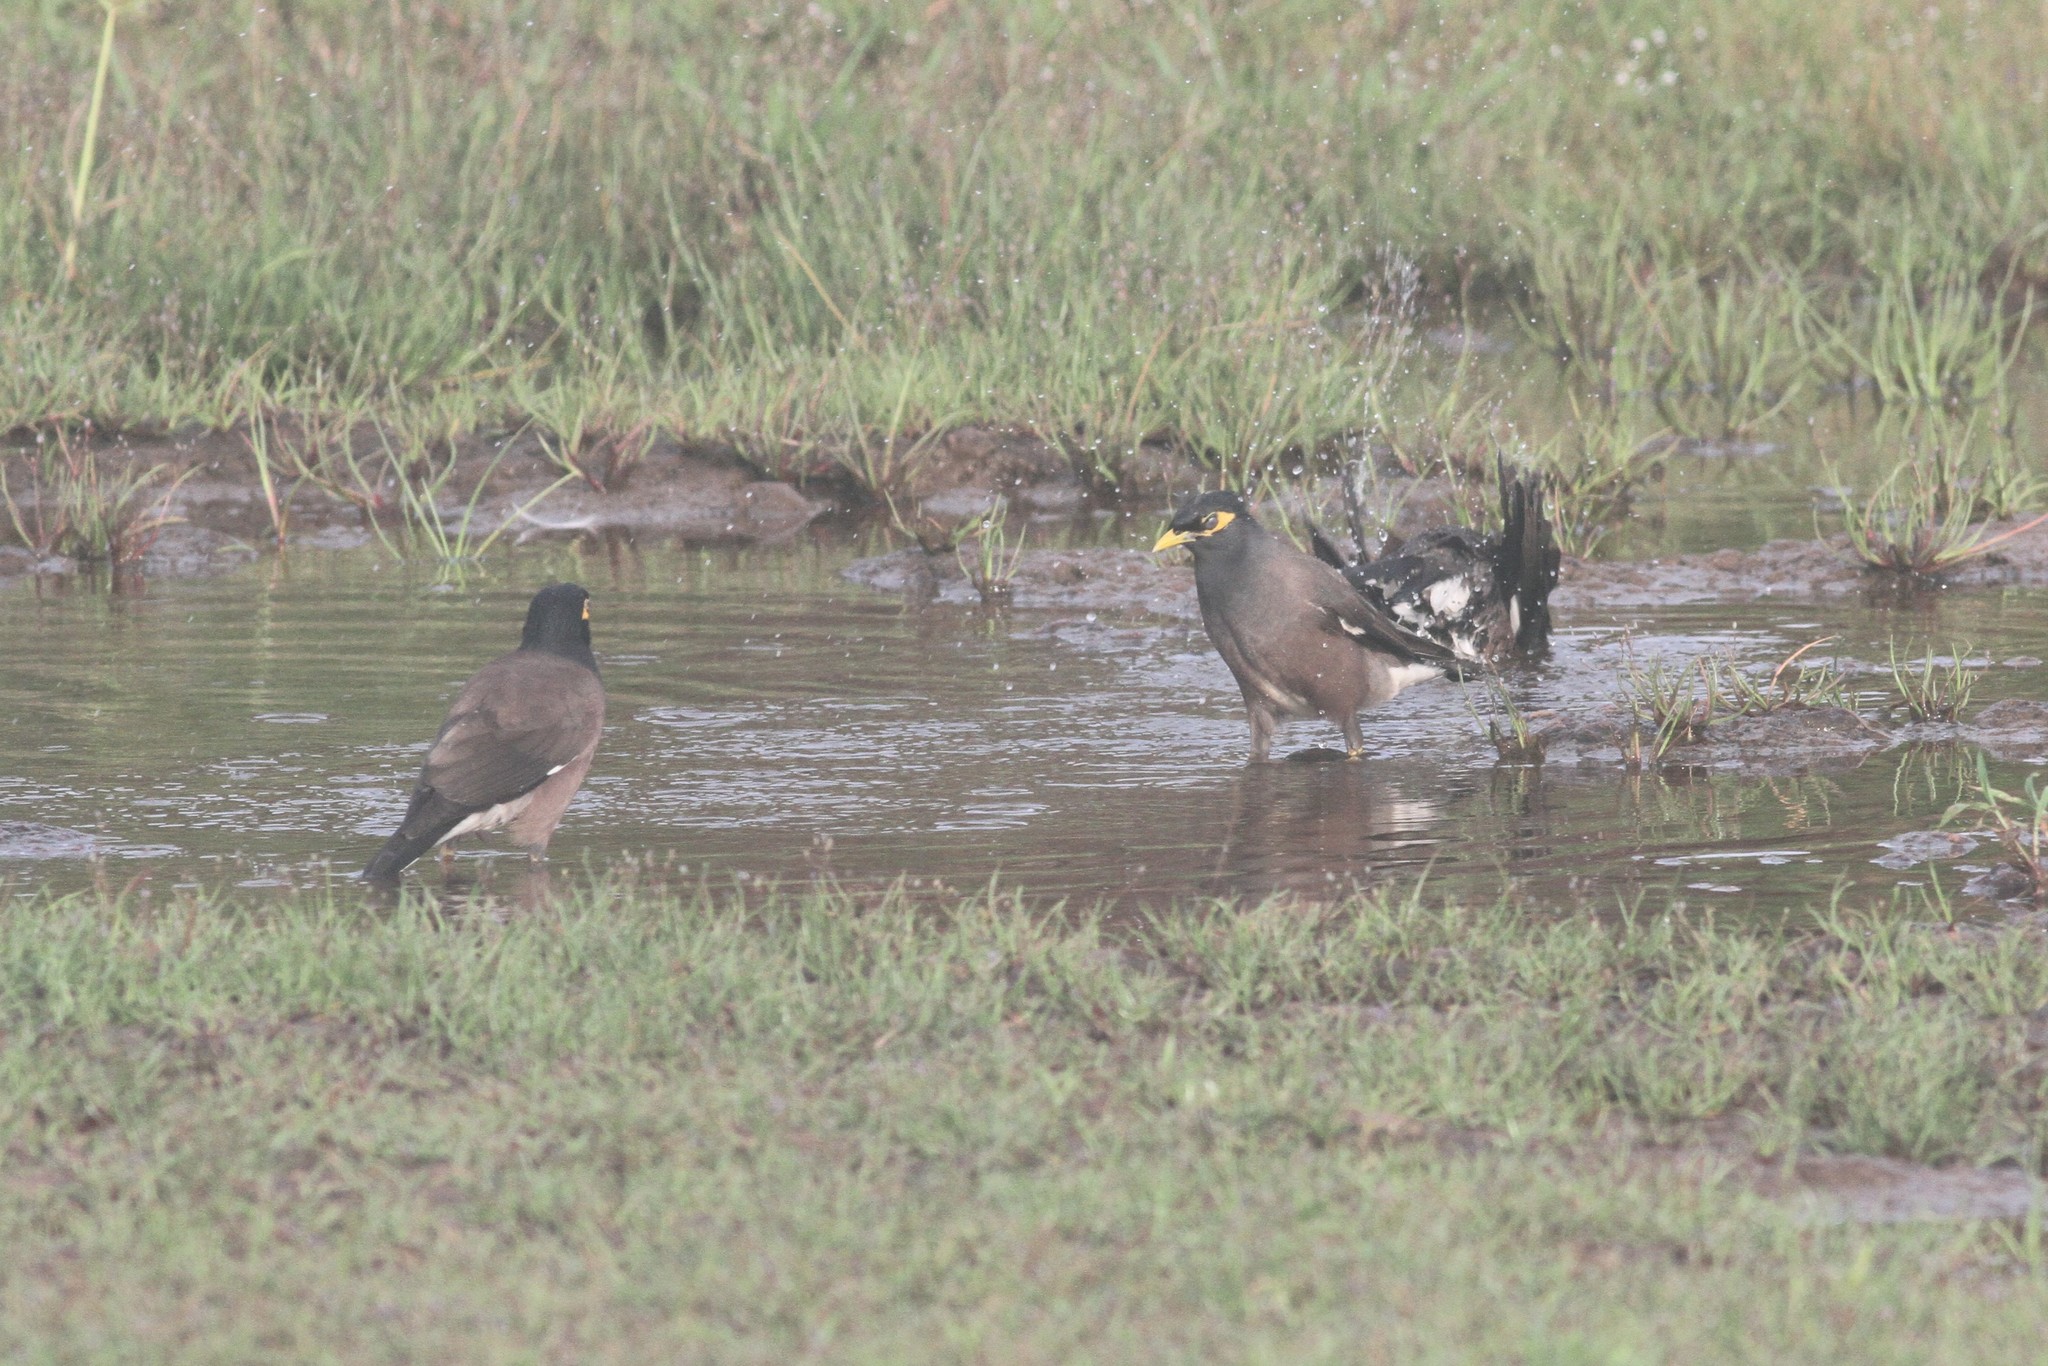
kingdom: Animalia
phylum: Chordata
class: Aves
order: Passeriformes
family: Sturnidae
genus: Acridotheres
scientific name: Acridotheres tristis
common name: Common myna
